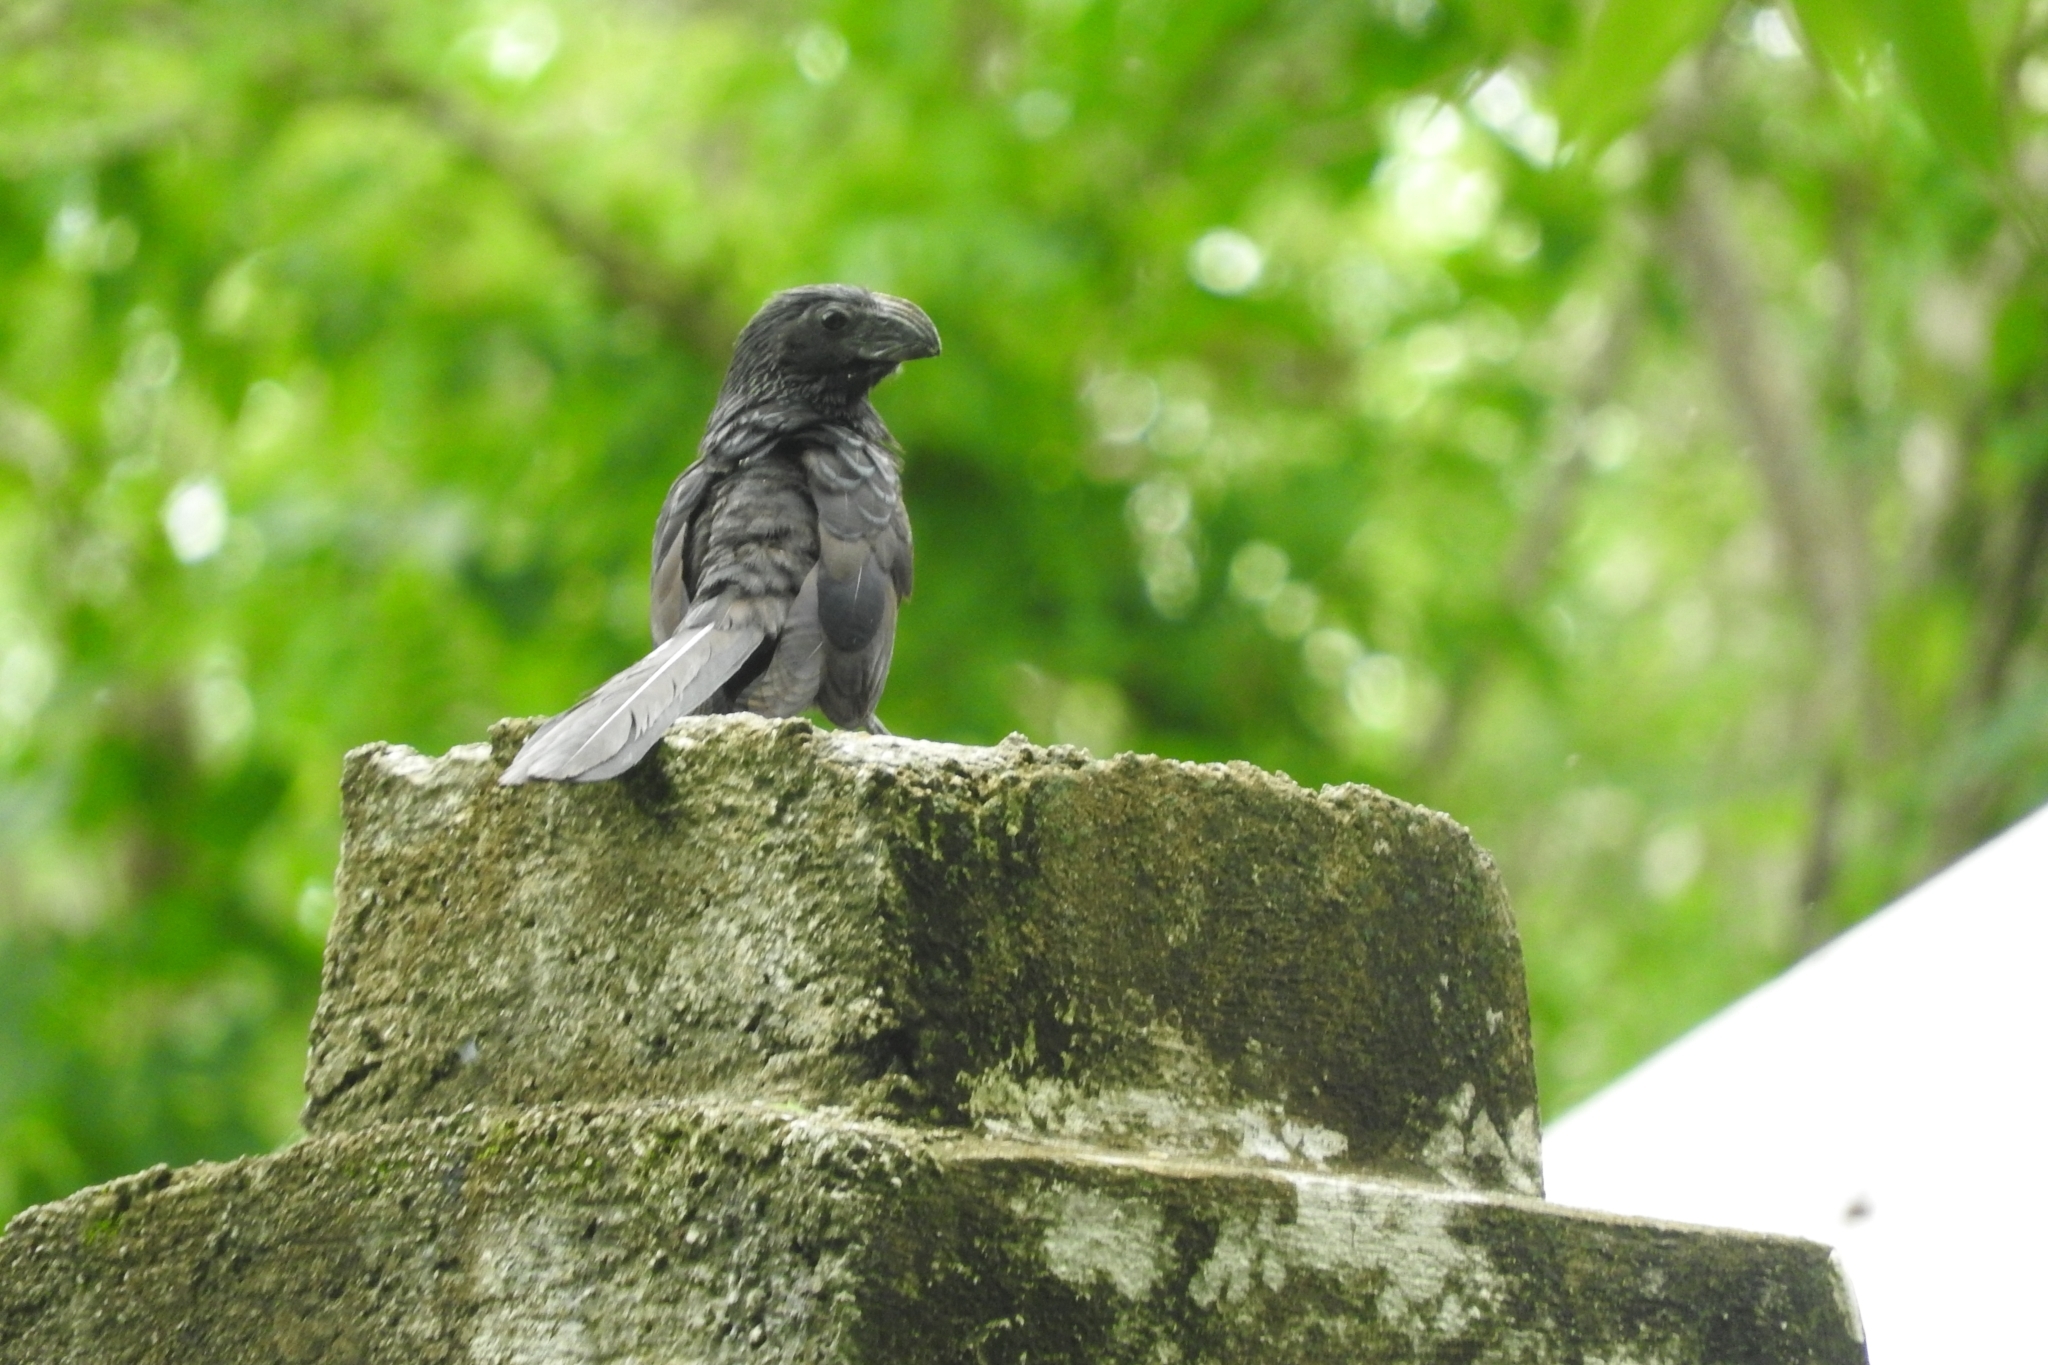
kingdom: Animalia
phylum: Chordata
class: Aves
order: Cuculiformes
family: Cuculidae
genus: Crotophaga
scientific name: Crotophaga sulcirostris
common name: Groove-billed ani
